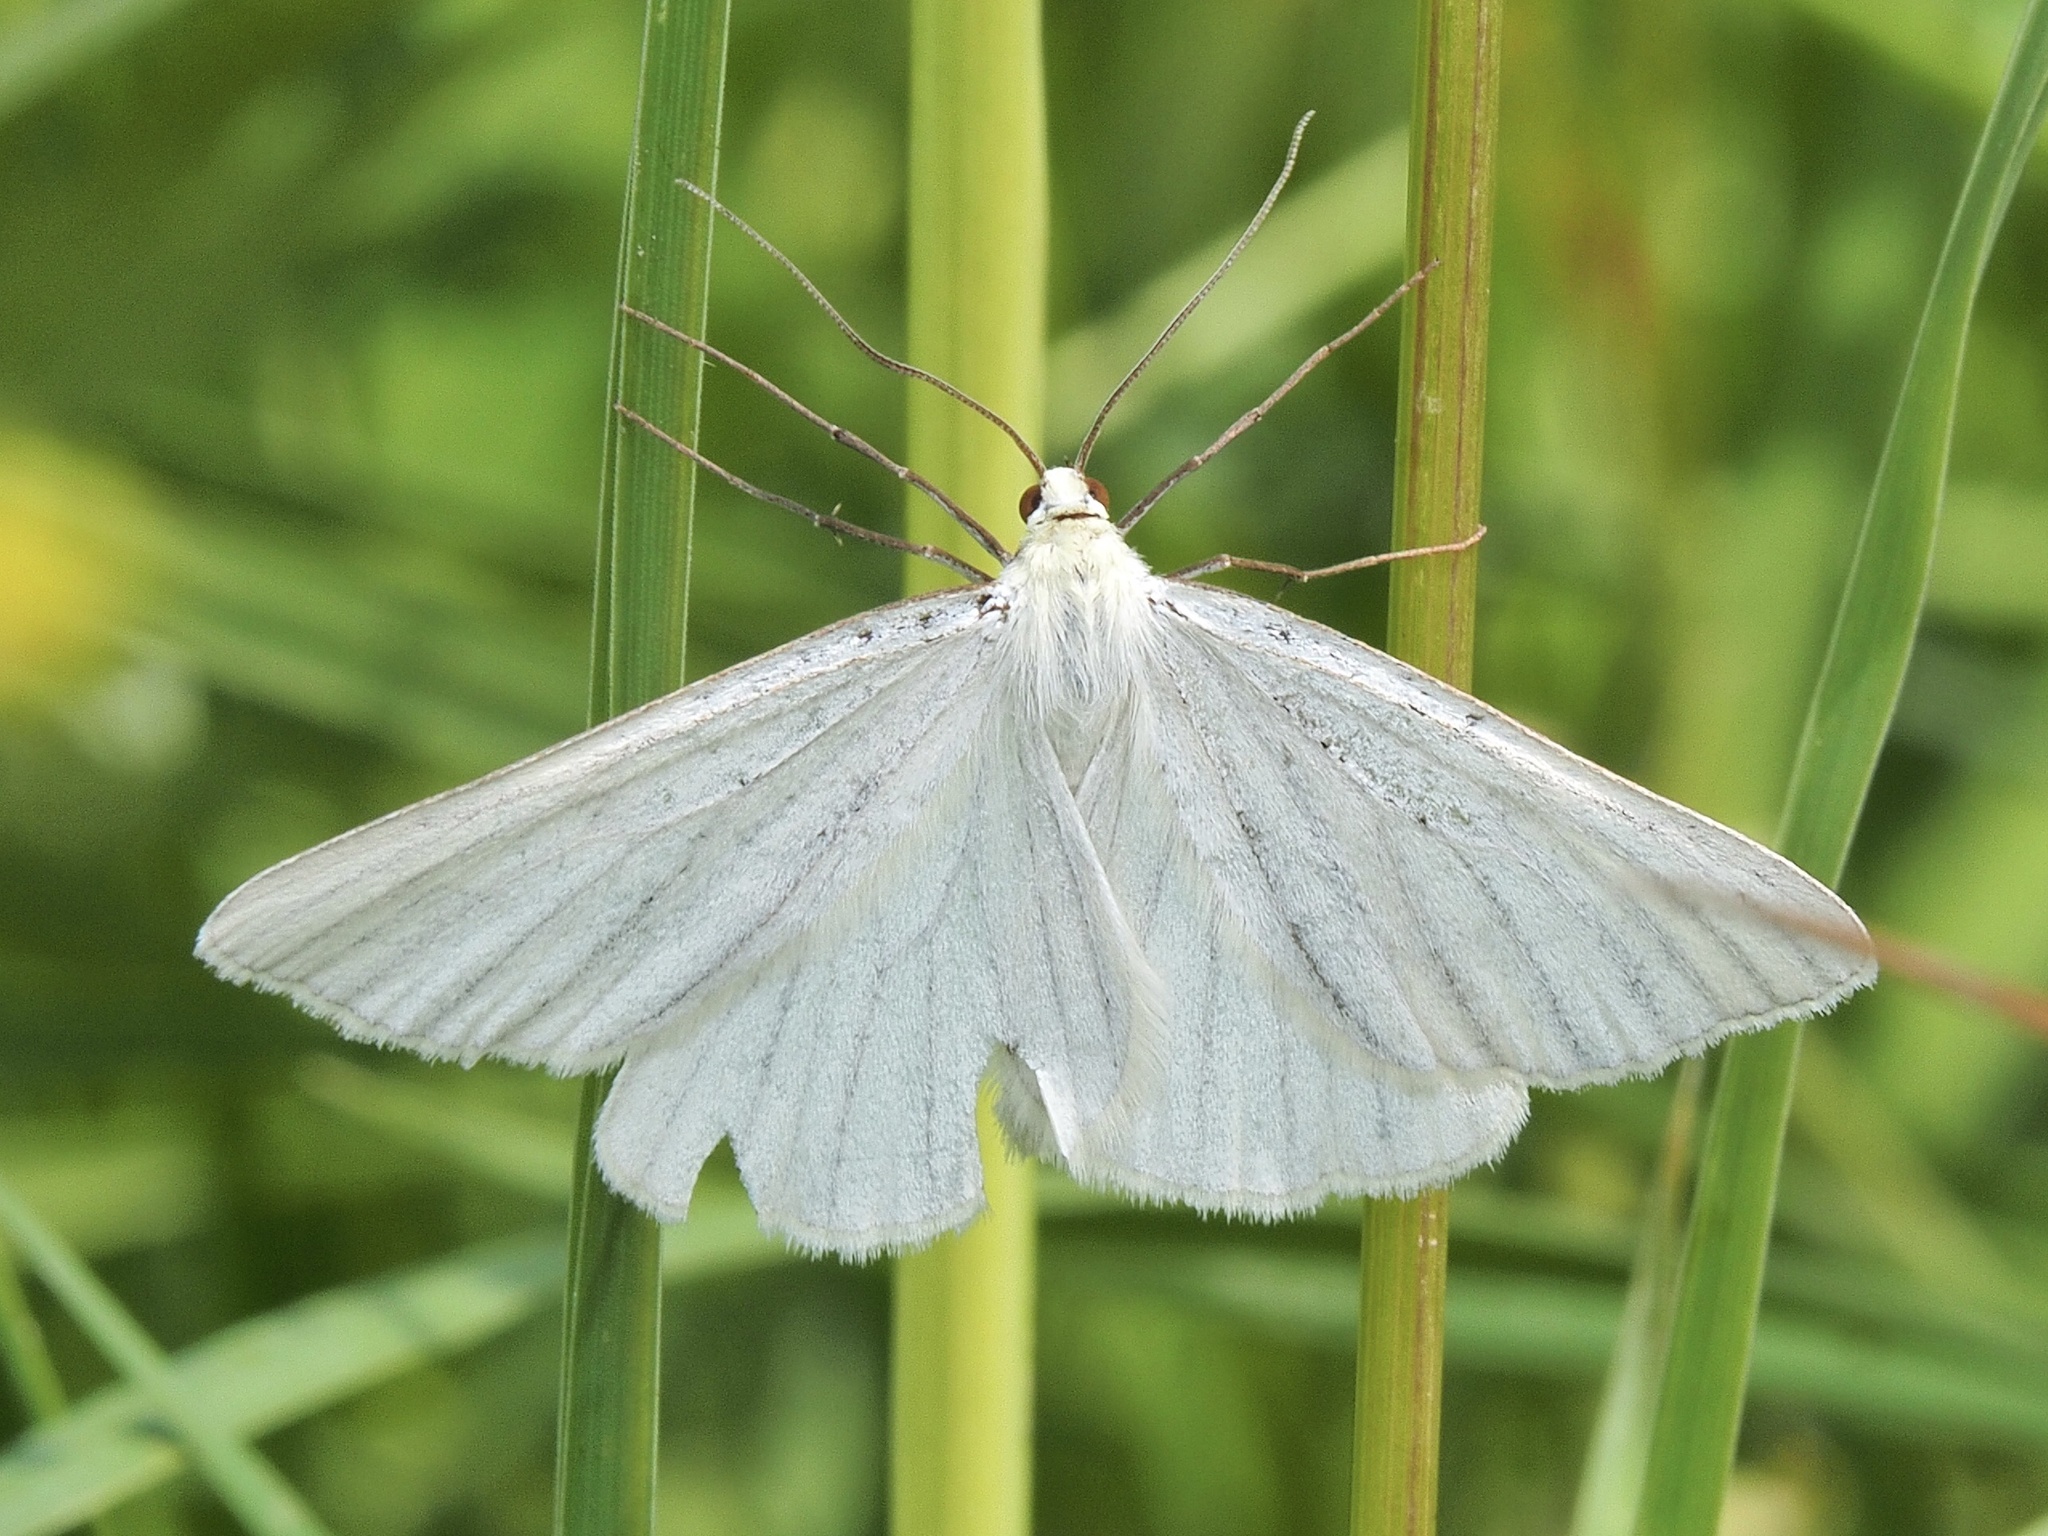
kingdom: Animalia
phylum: Arthropoda
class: Insecta
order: Lepidoptera
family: Geometridae
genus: Siona
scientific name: Siona lineata
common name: Black-veined moth
